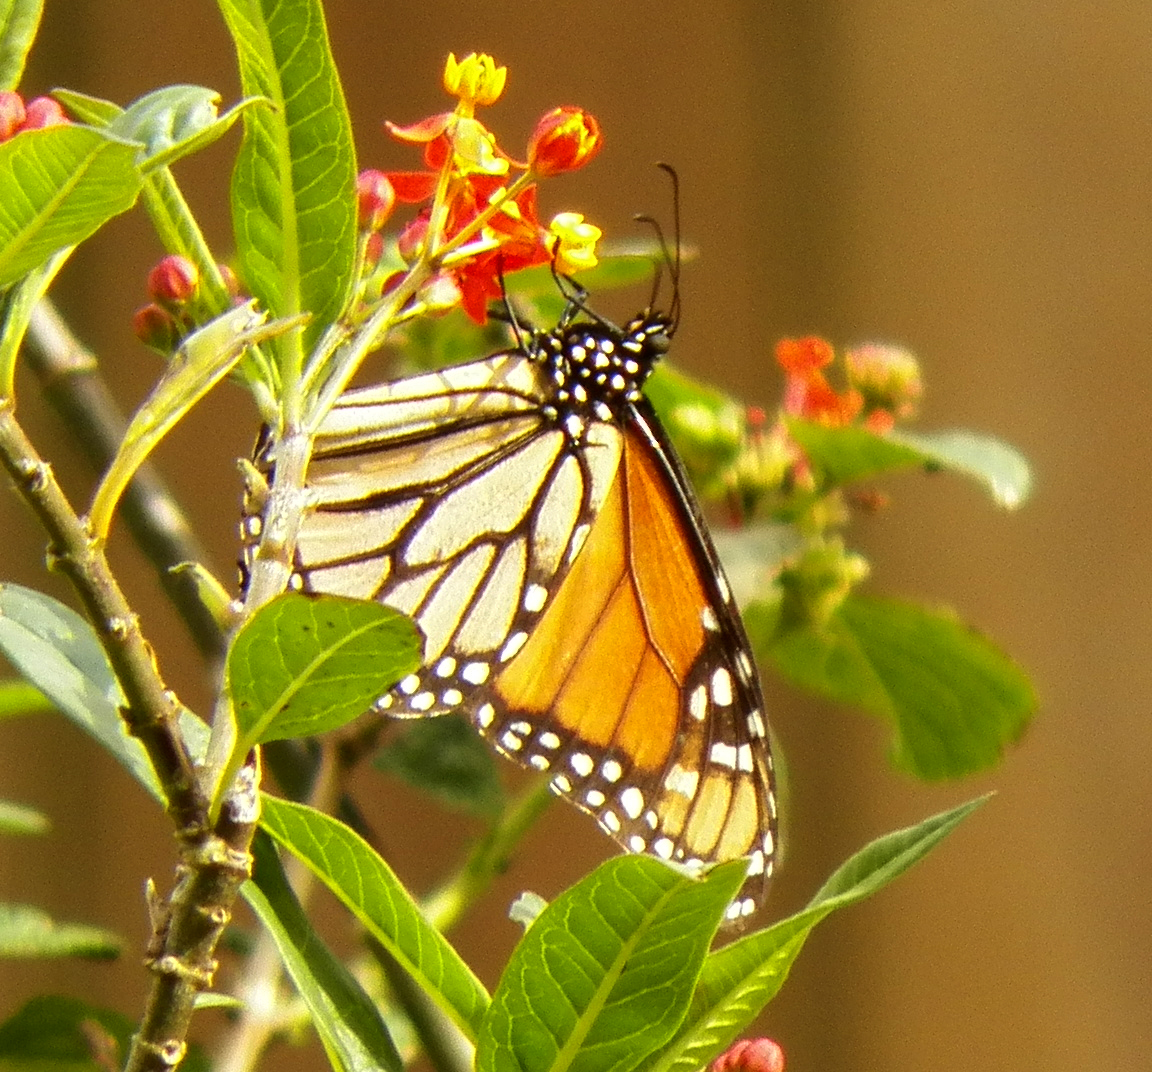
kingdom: Animalia
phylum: Arthropoda
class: Insecta
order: Lepidoptera
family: Nymphalidae
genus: Danaus
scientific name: Danaus plexippus
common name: Monarch
